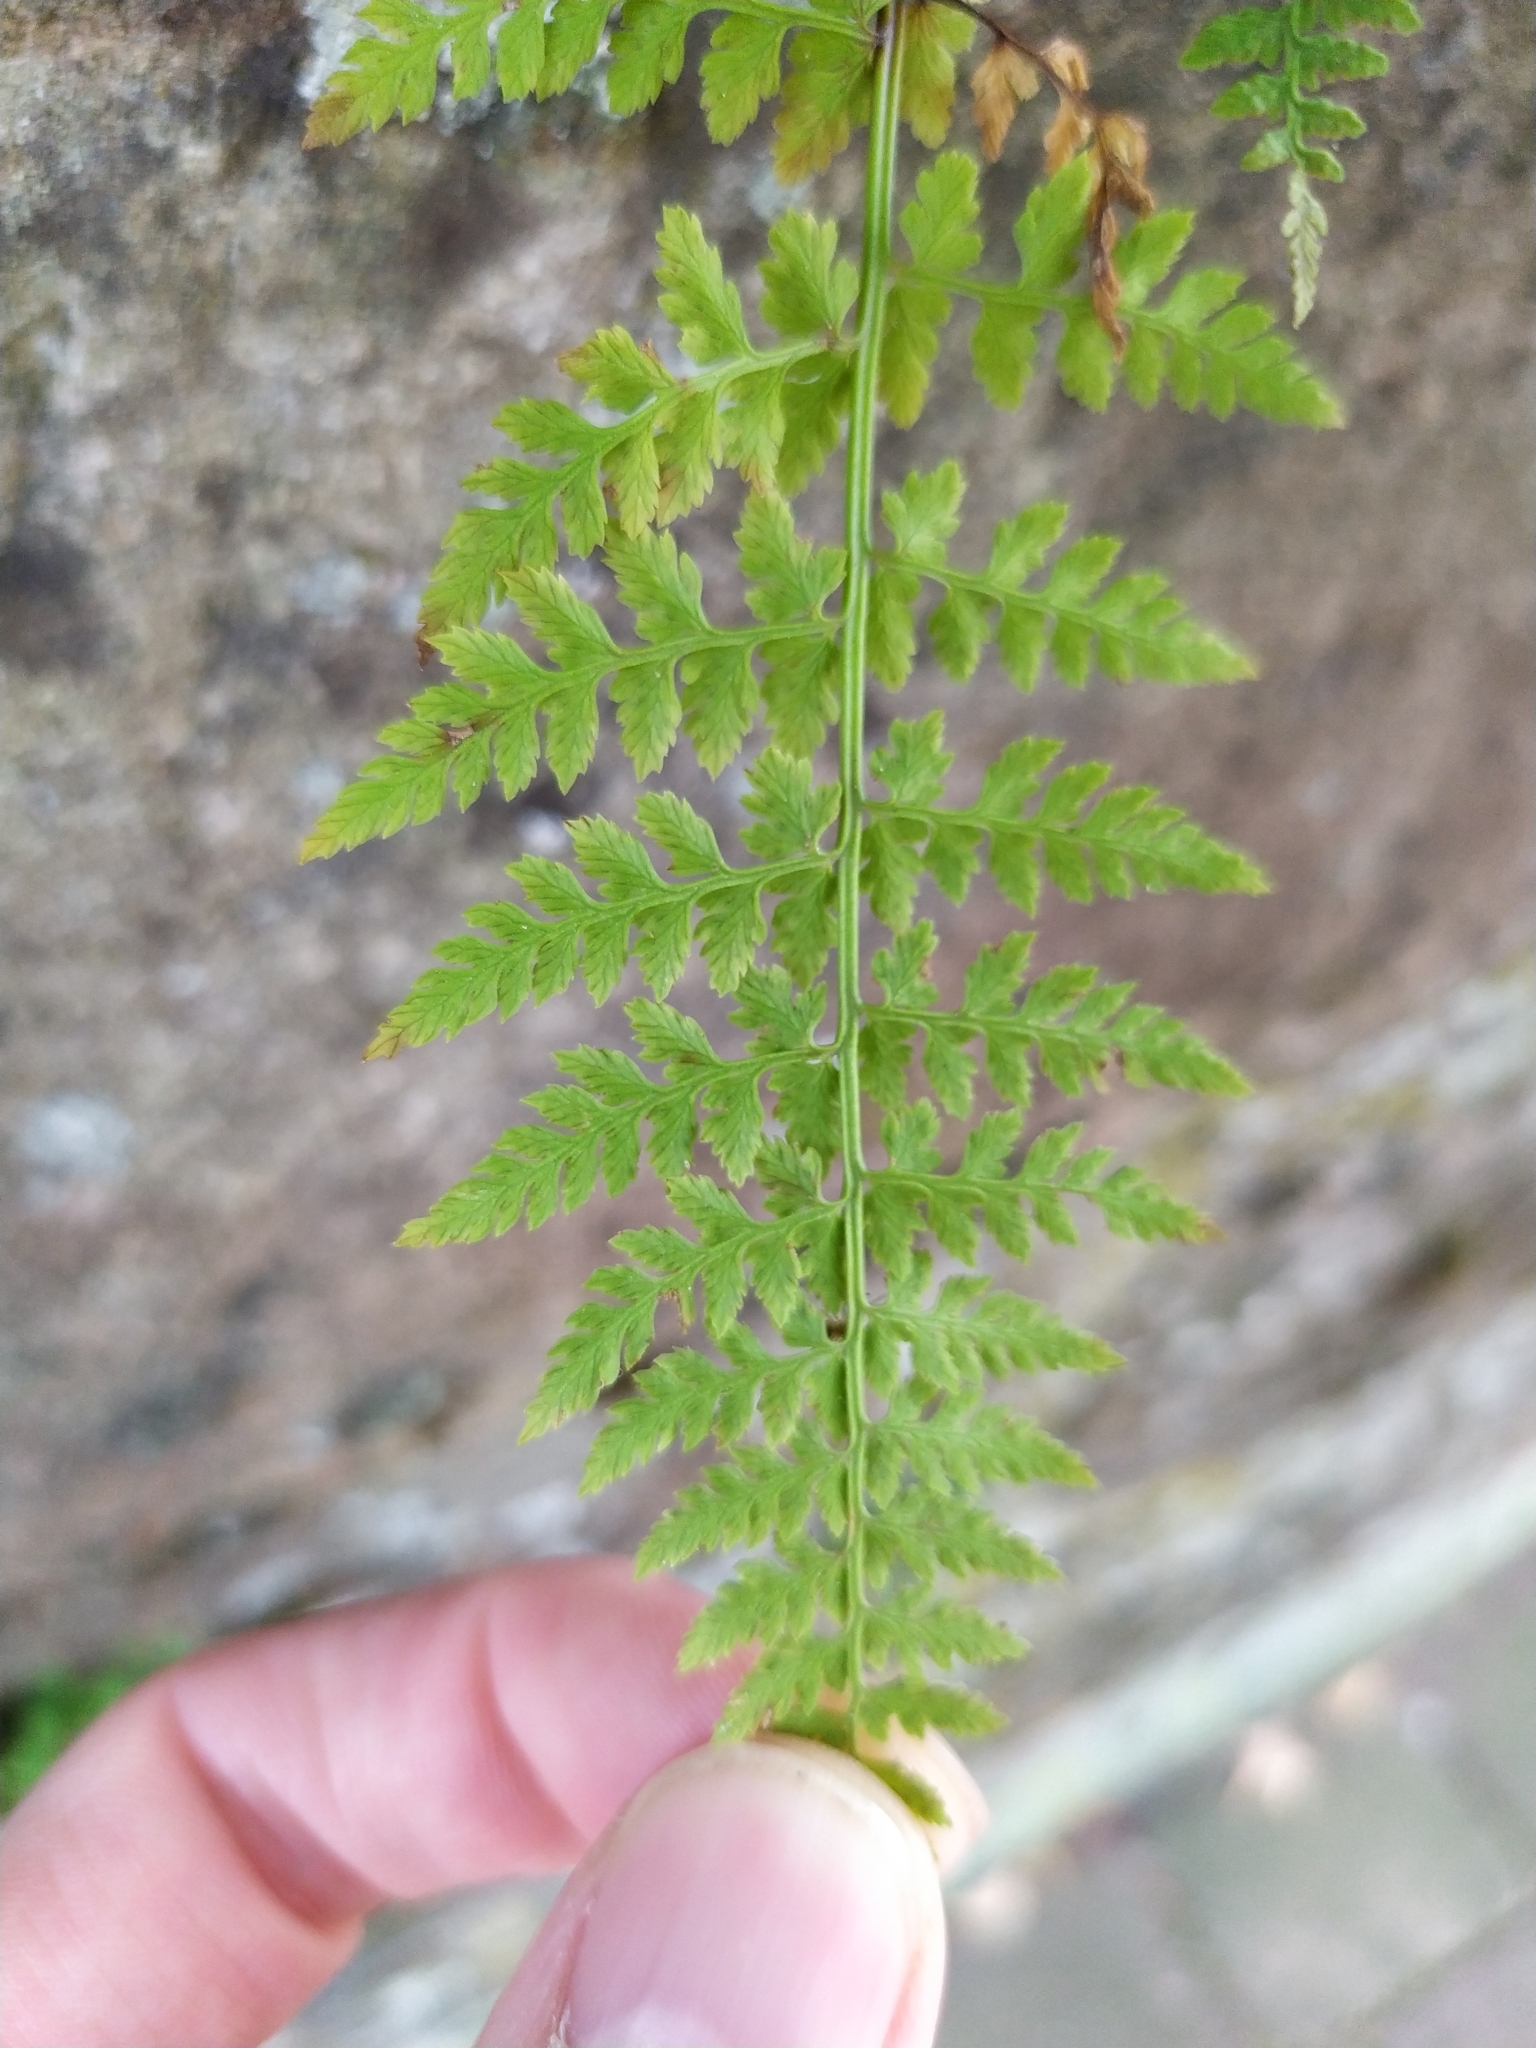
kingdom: Plantae
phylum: Tracheophyta
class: Polypodiopsida
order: Polypodiales
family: Cystopteridaceae
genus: Cystopteris
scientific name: Cystopteris fragilis
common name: Brittle bladder fern
